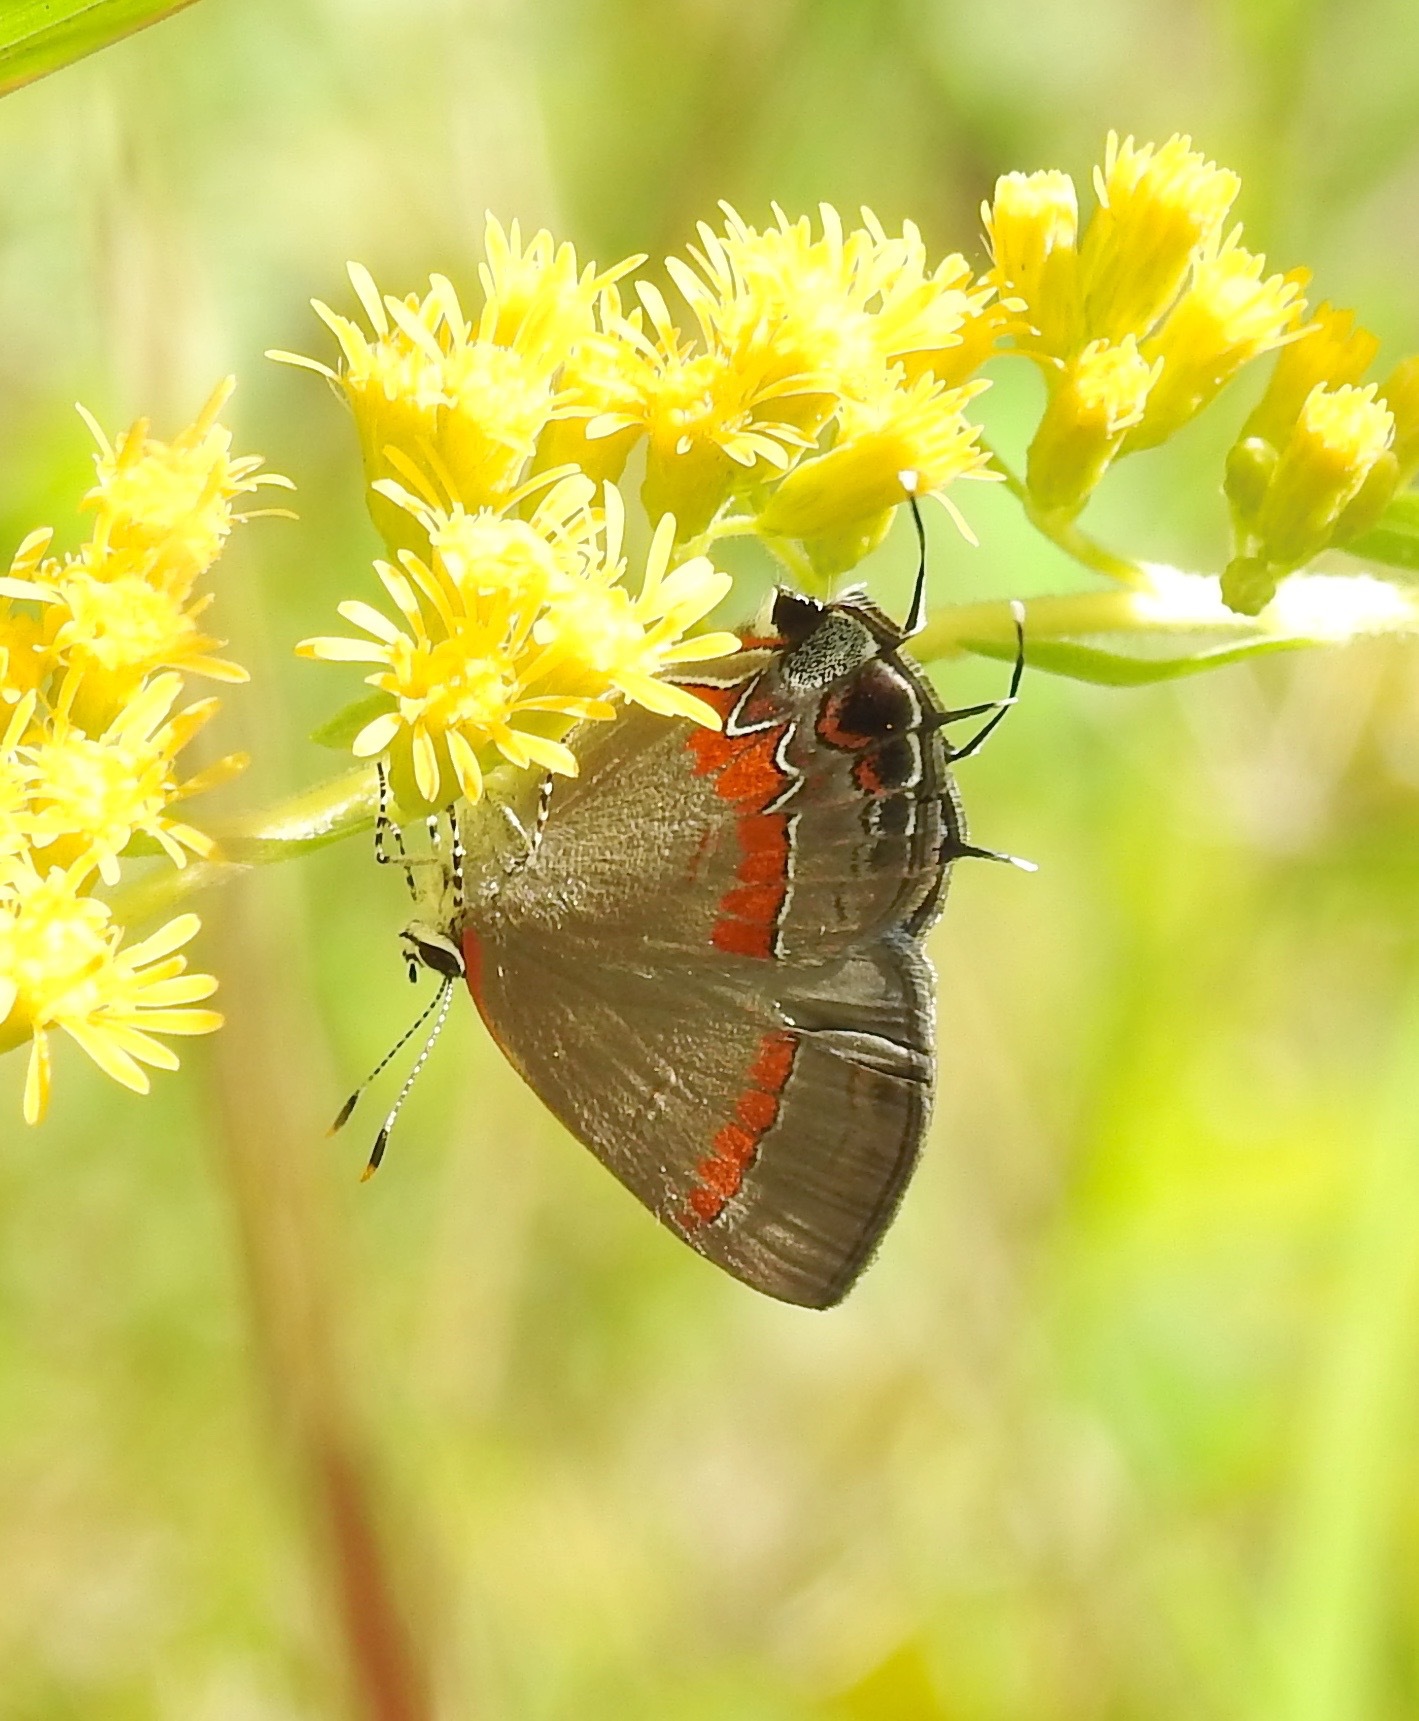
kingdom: Animalia
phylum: Arthropoda
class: Insecta
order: Lepidoptera
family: Lycaenidae
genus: Calycopis
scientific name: Calycopis cecrops
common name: Red-banded hairstreak
